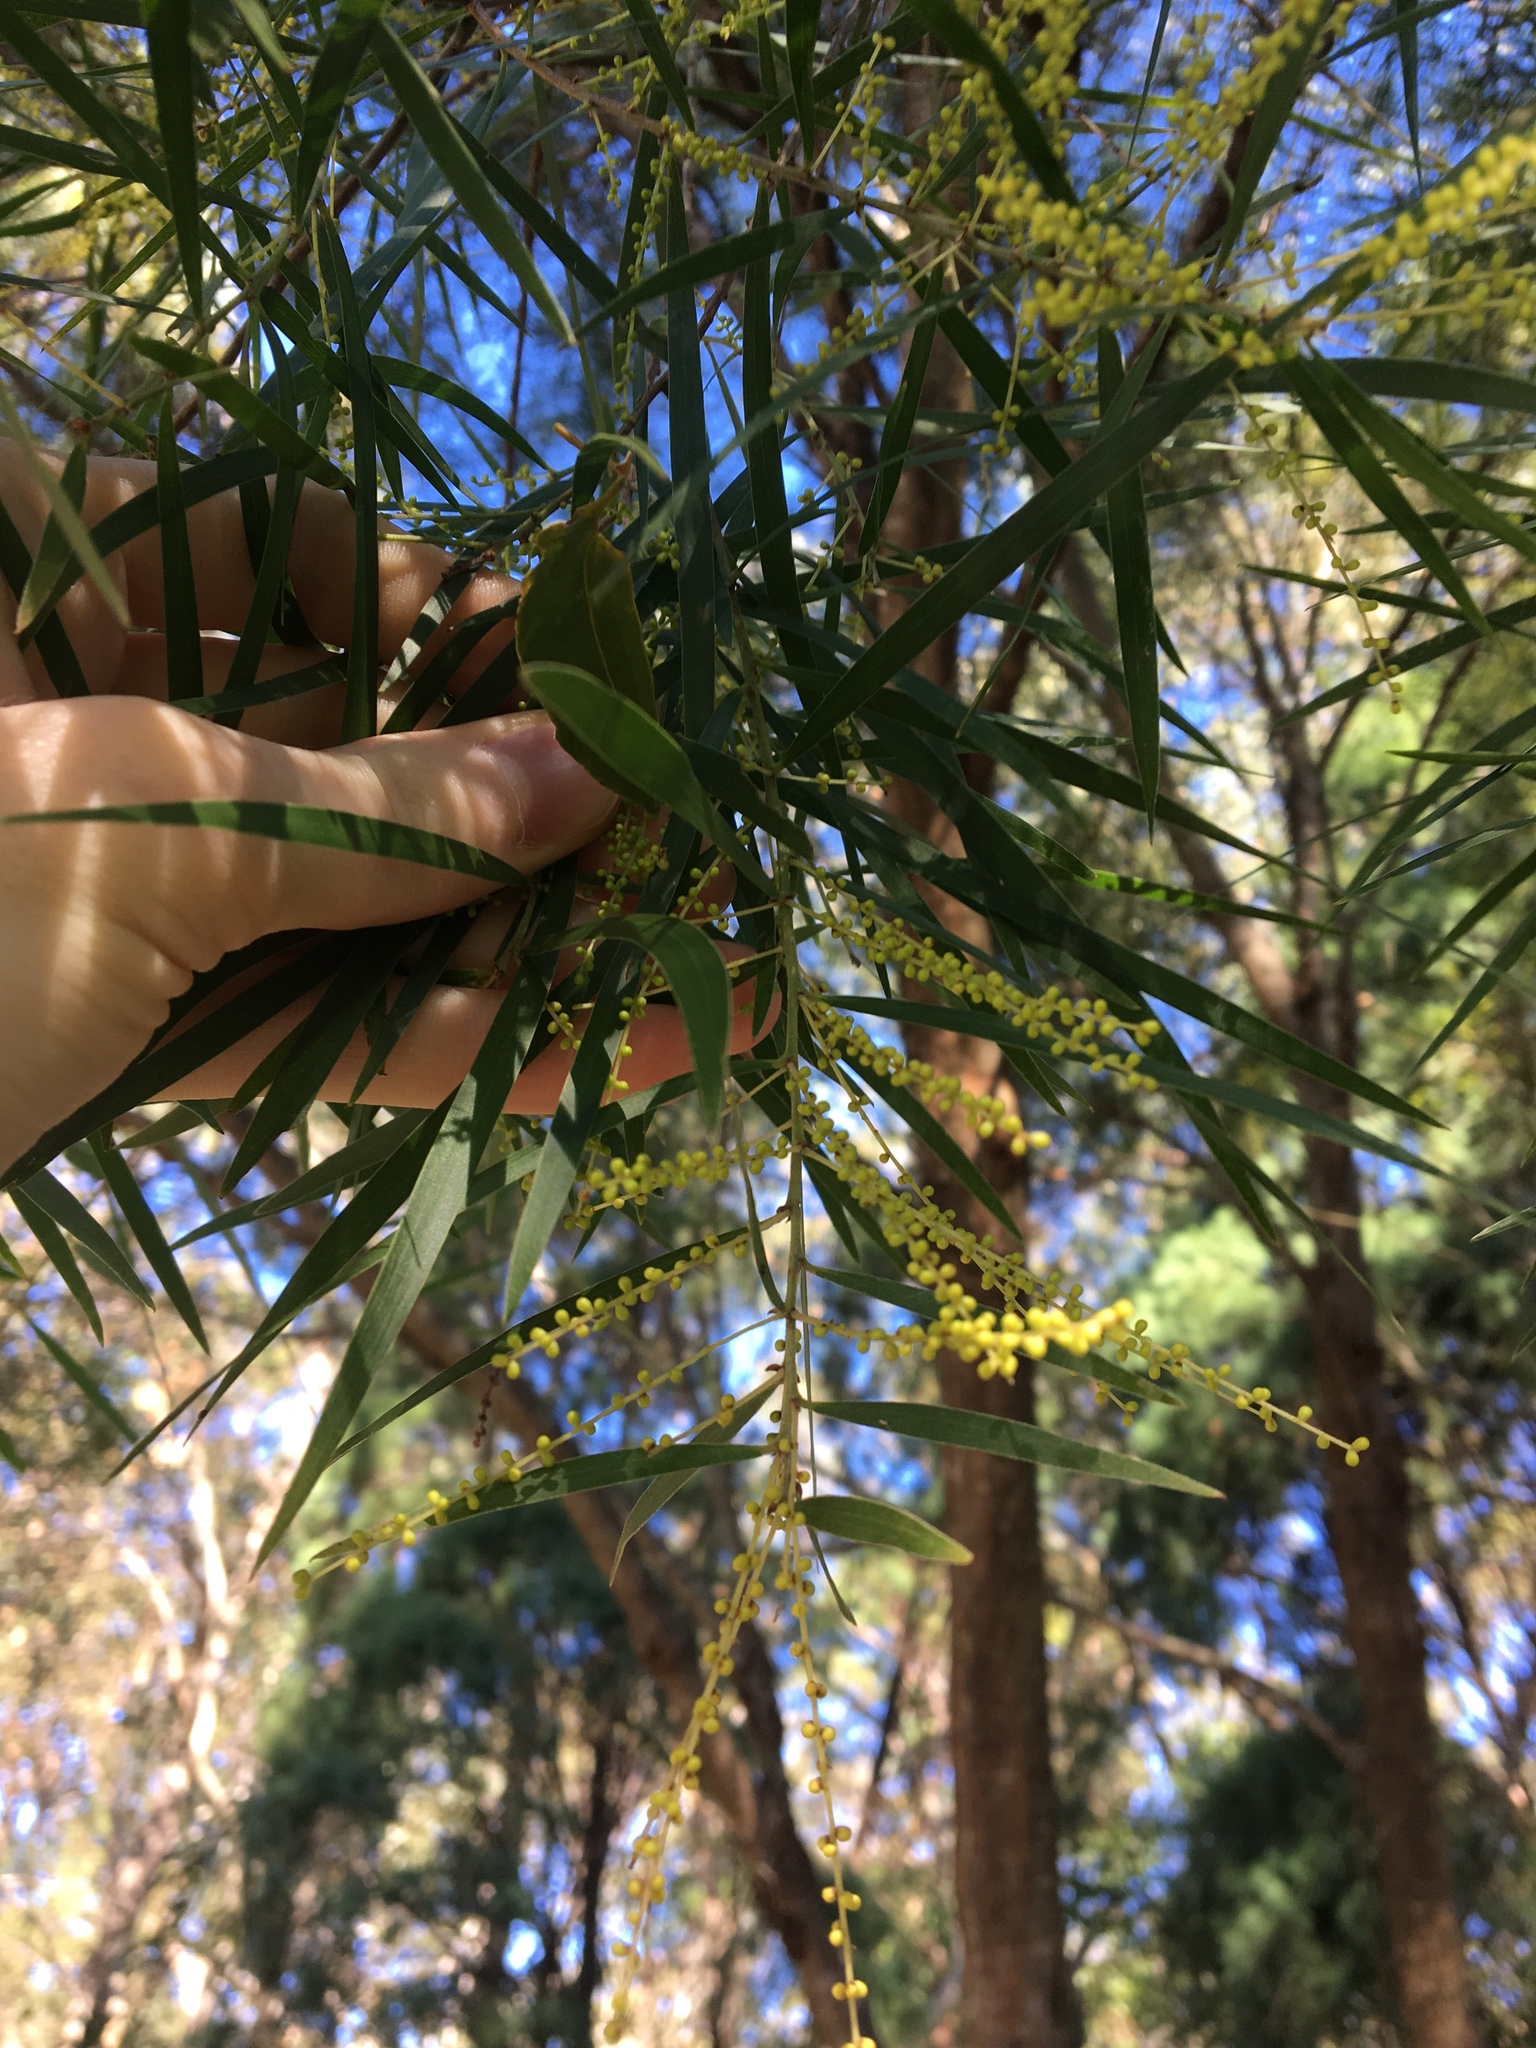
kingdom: Plantae
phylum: Tracheophyta
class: Magnoliopsida
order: Fabales
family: Fabaceae
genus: Acacia
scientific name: Acacia floribunda
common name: Gossamer wattle
